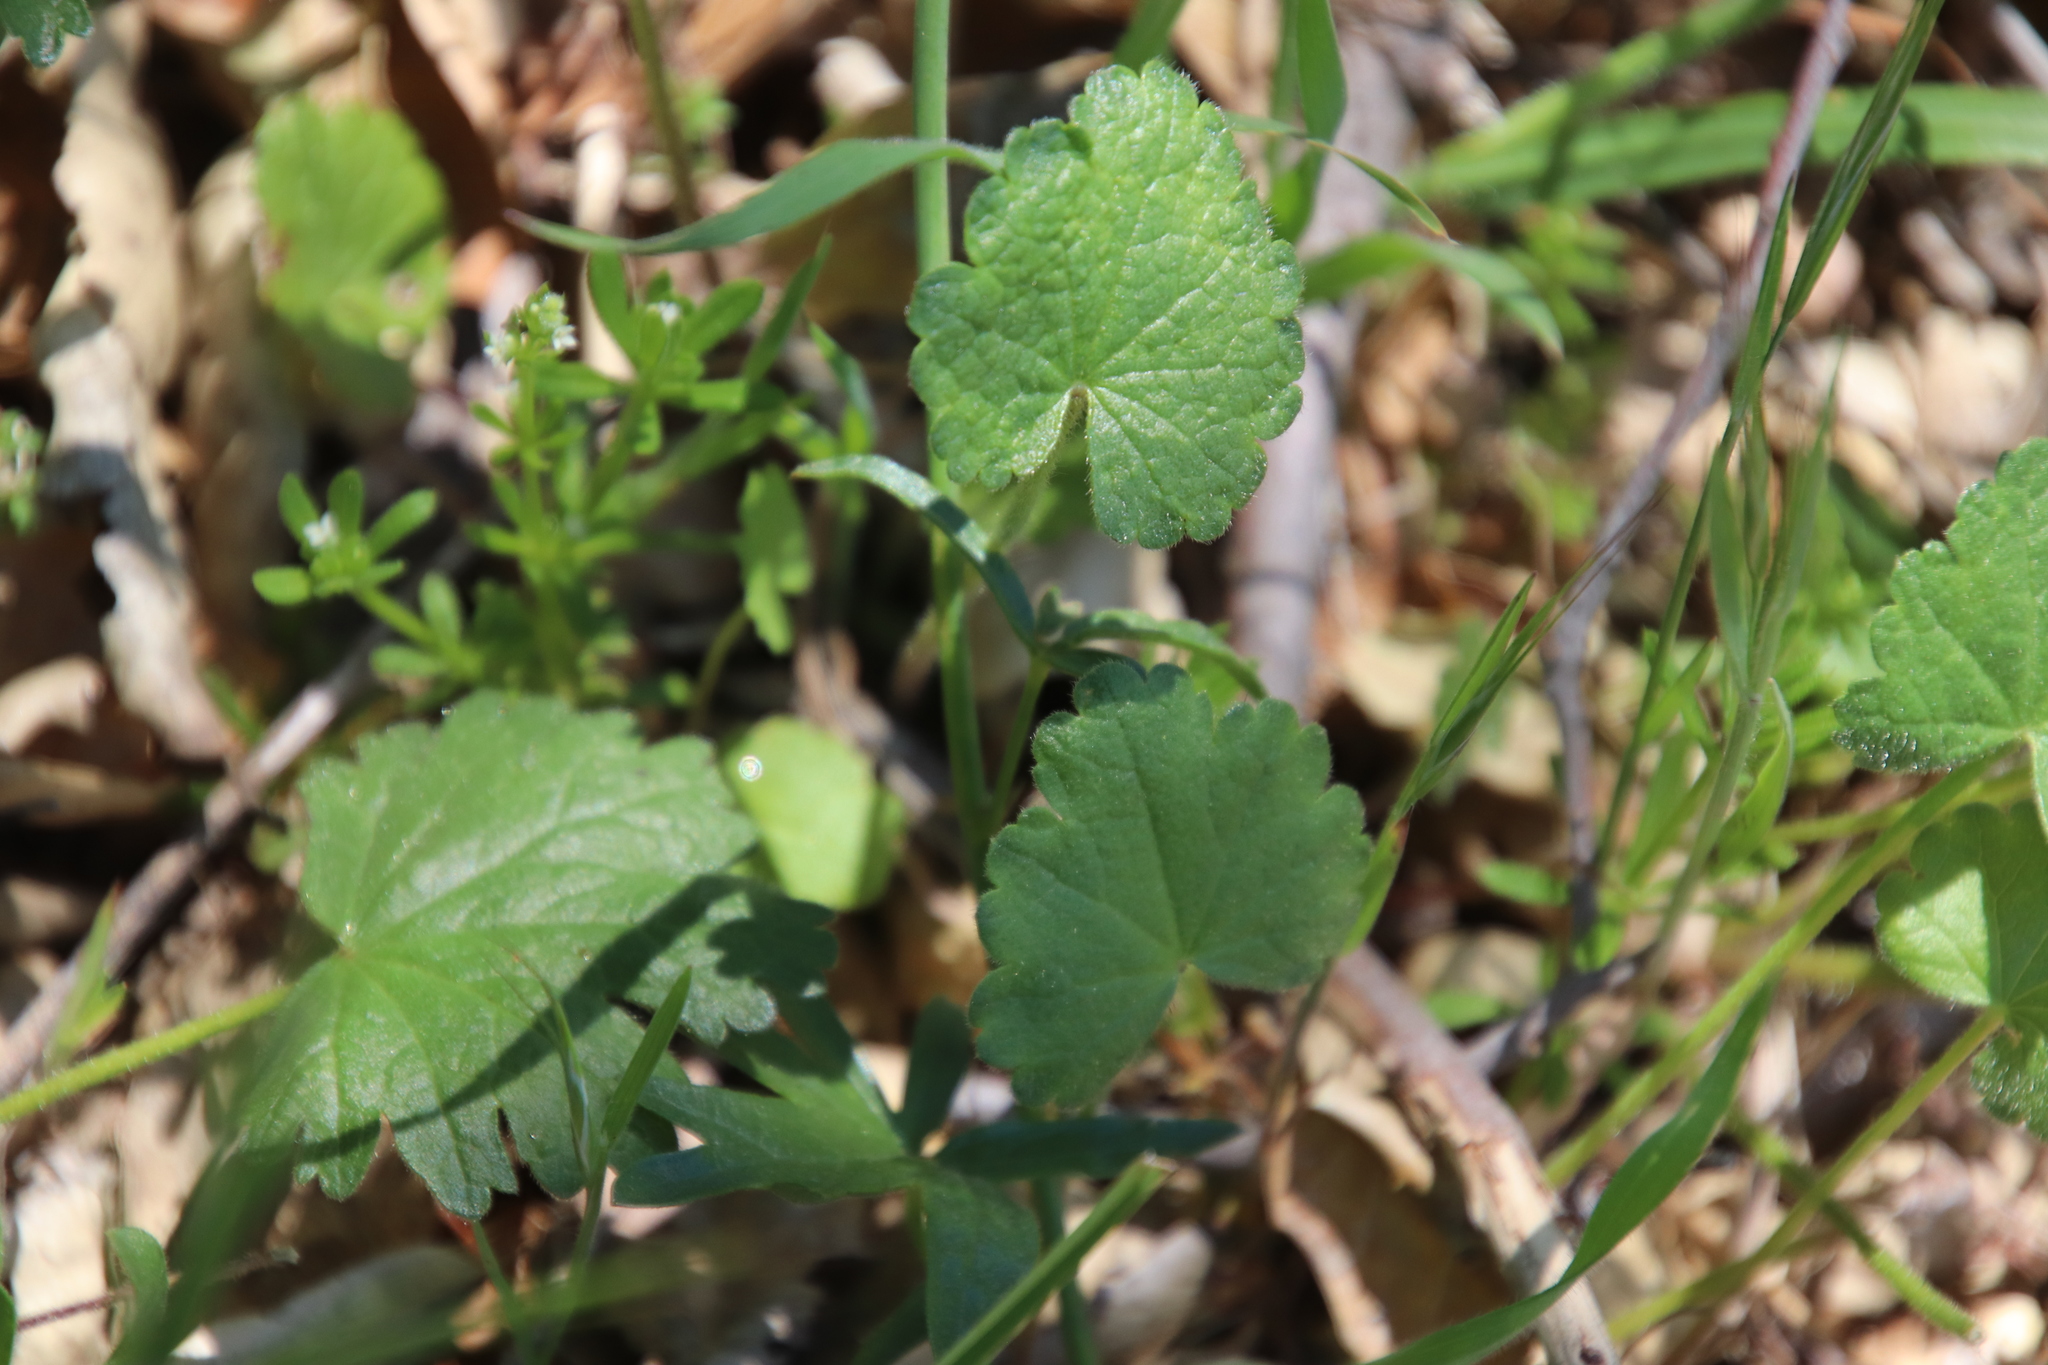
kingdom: Plantae
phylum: Tracheophyta
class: Magnoliopsida
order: Malvales
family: Malvaceae
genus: Sidalcea
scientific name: Sidalcea sparsifolia
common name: Southern checkerbloom
